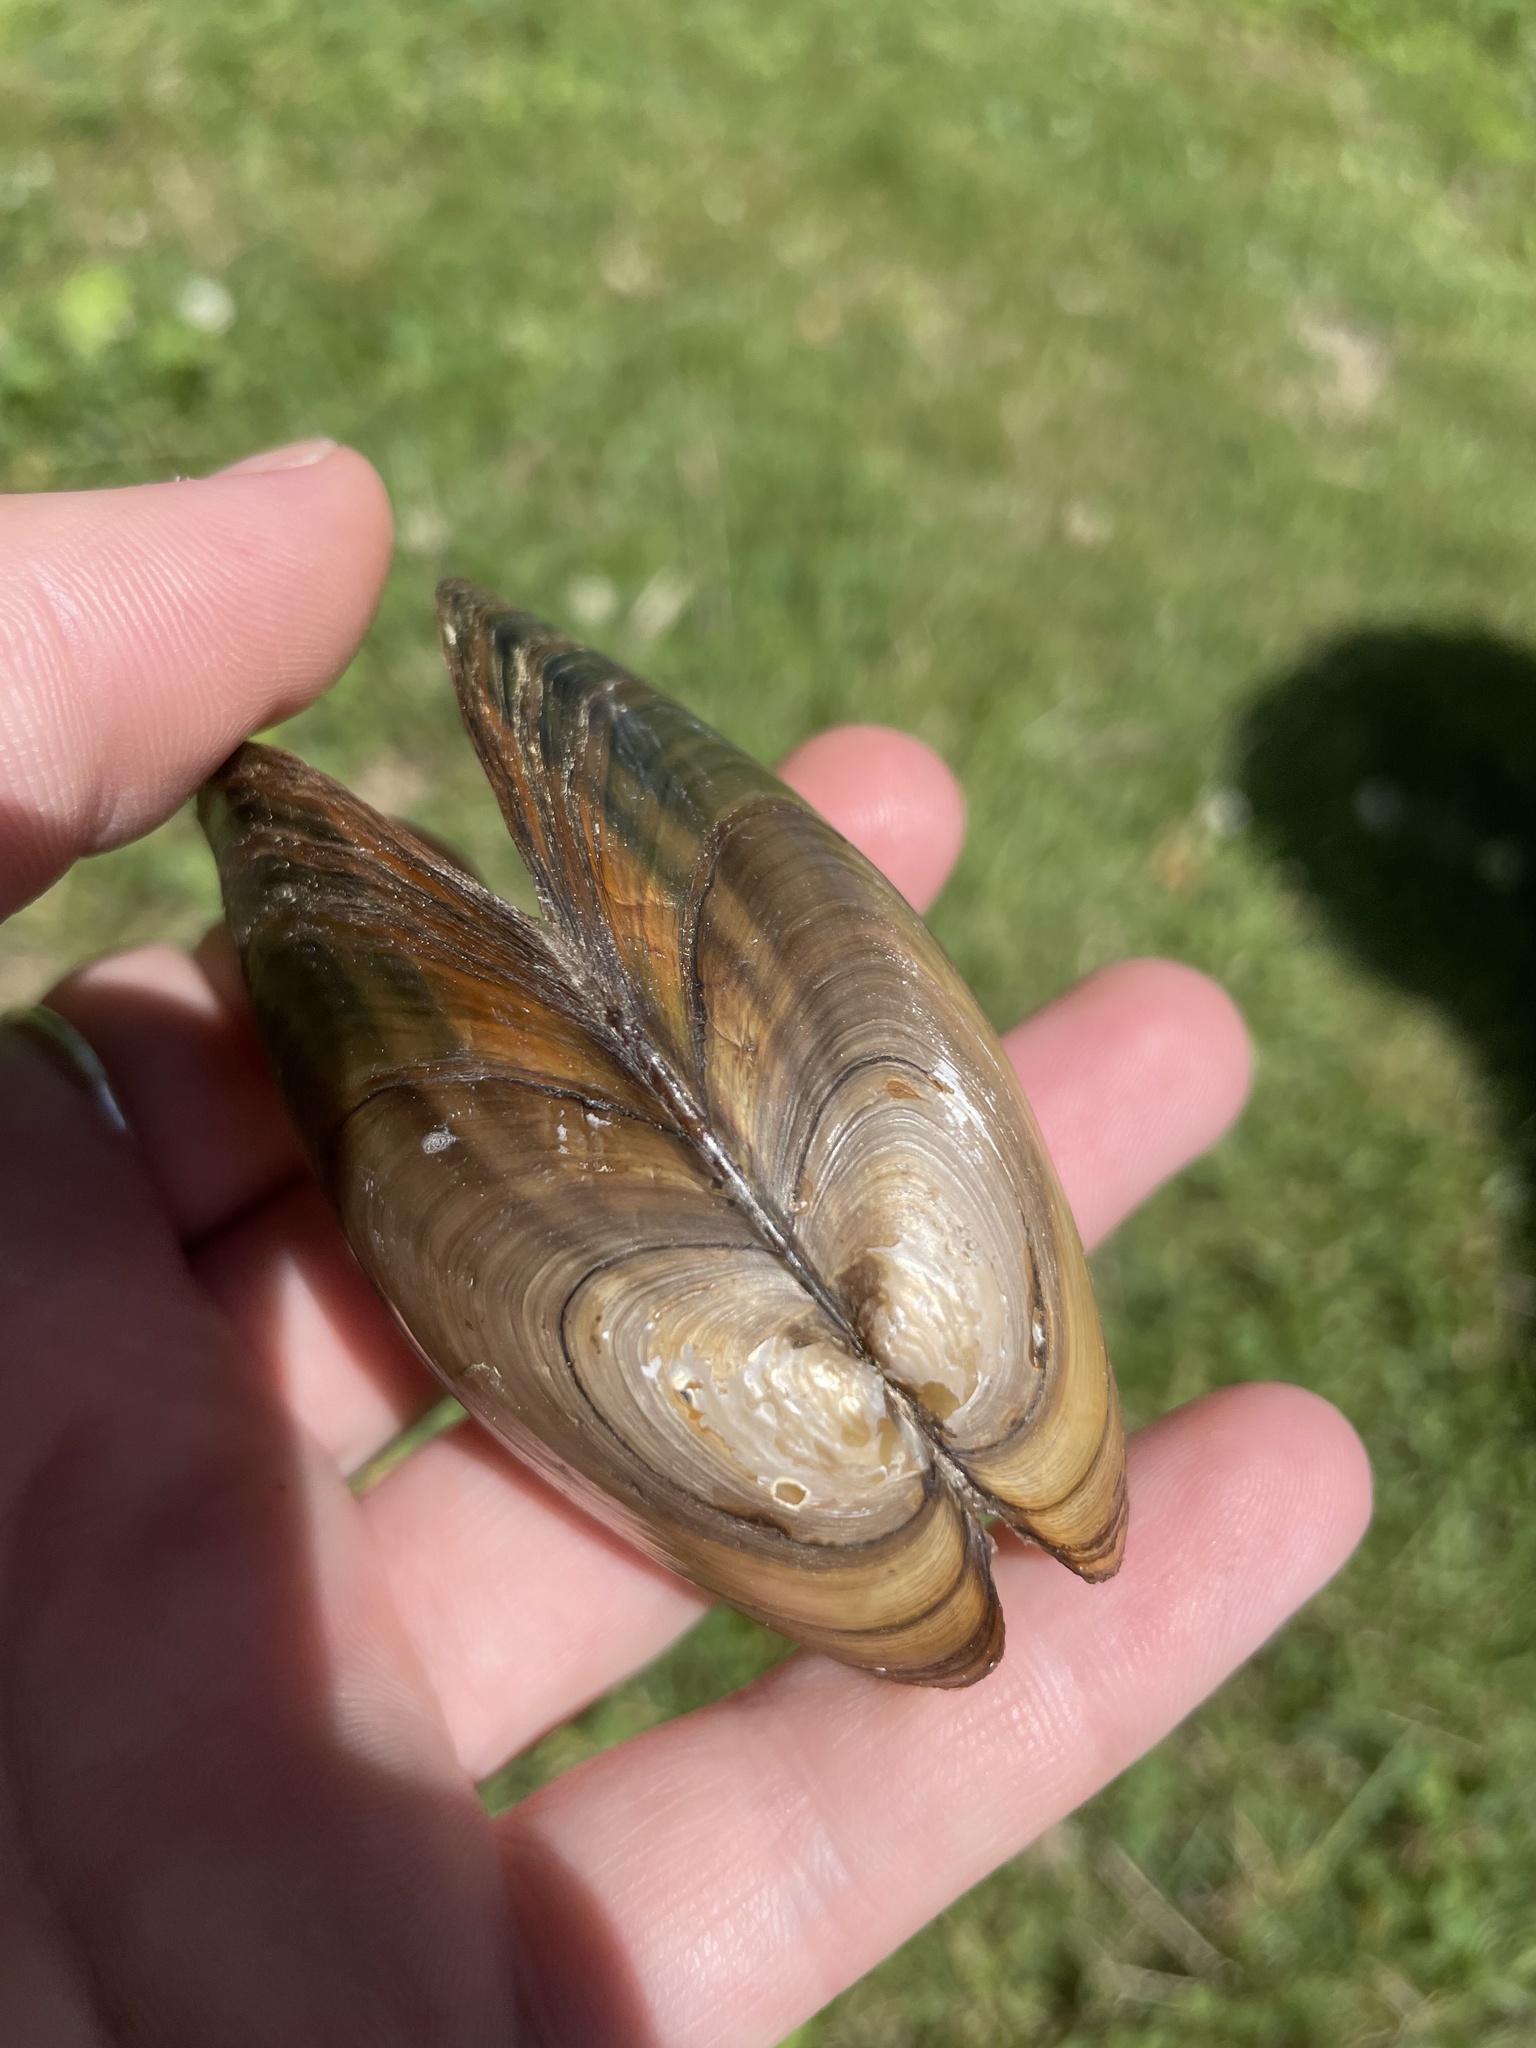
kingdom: Animalia
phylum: Mollusca
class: Bivalvia
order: Unionida
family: Unionidae
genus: Pyganodon
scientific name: Pyganodon cataracta
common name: Eastern floater
